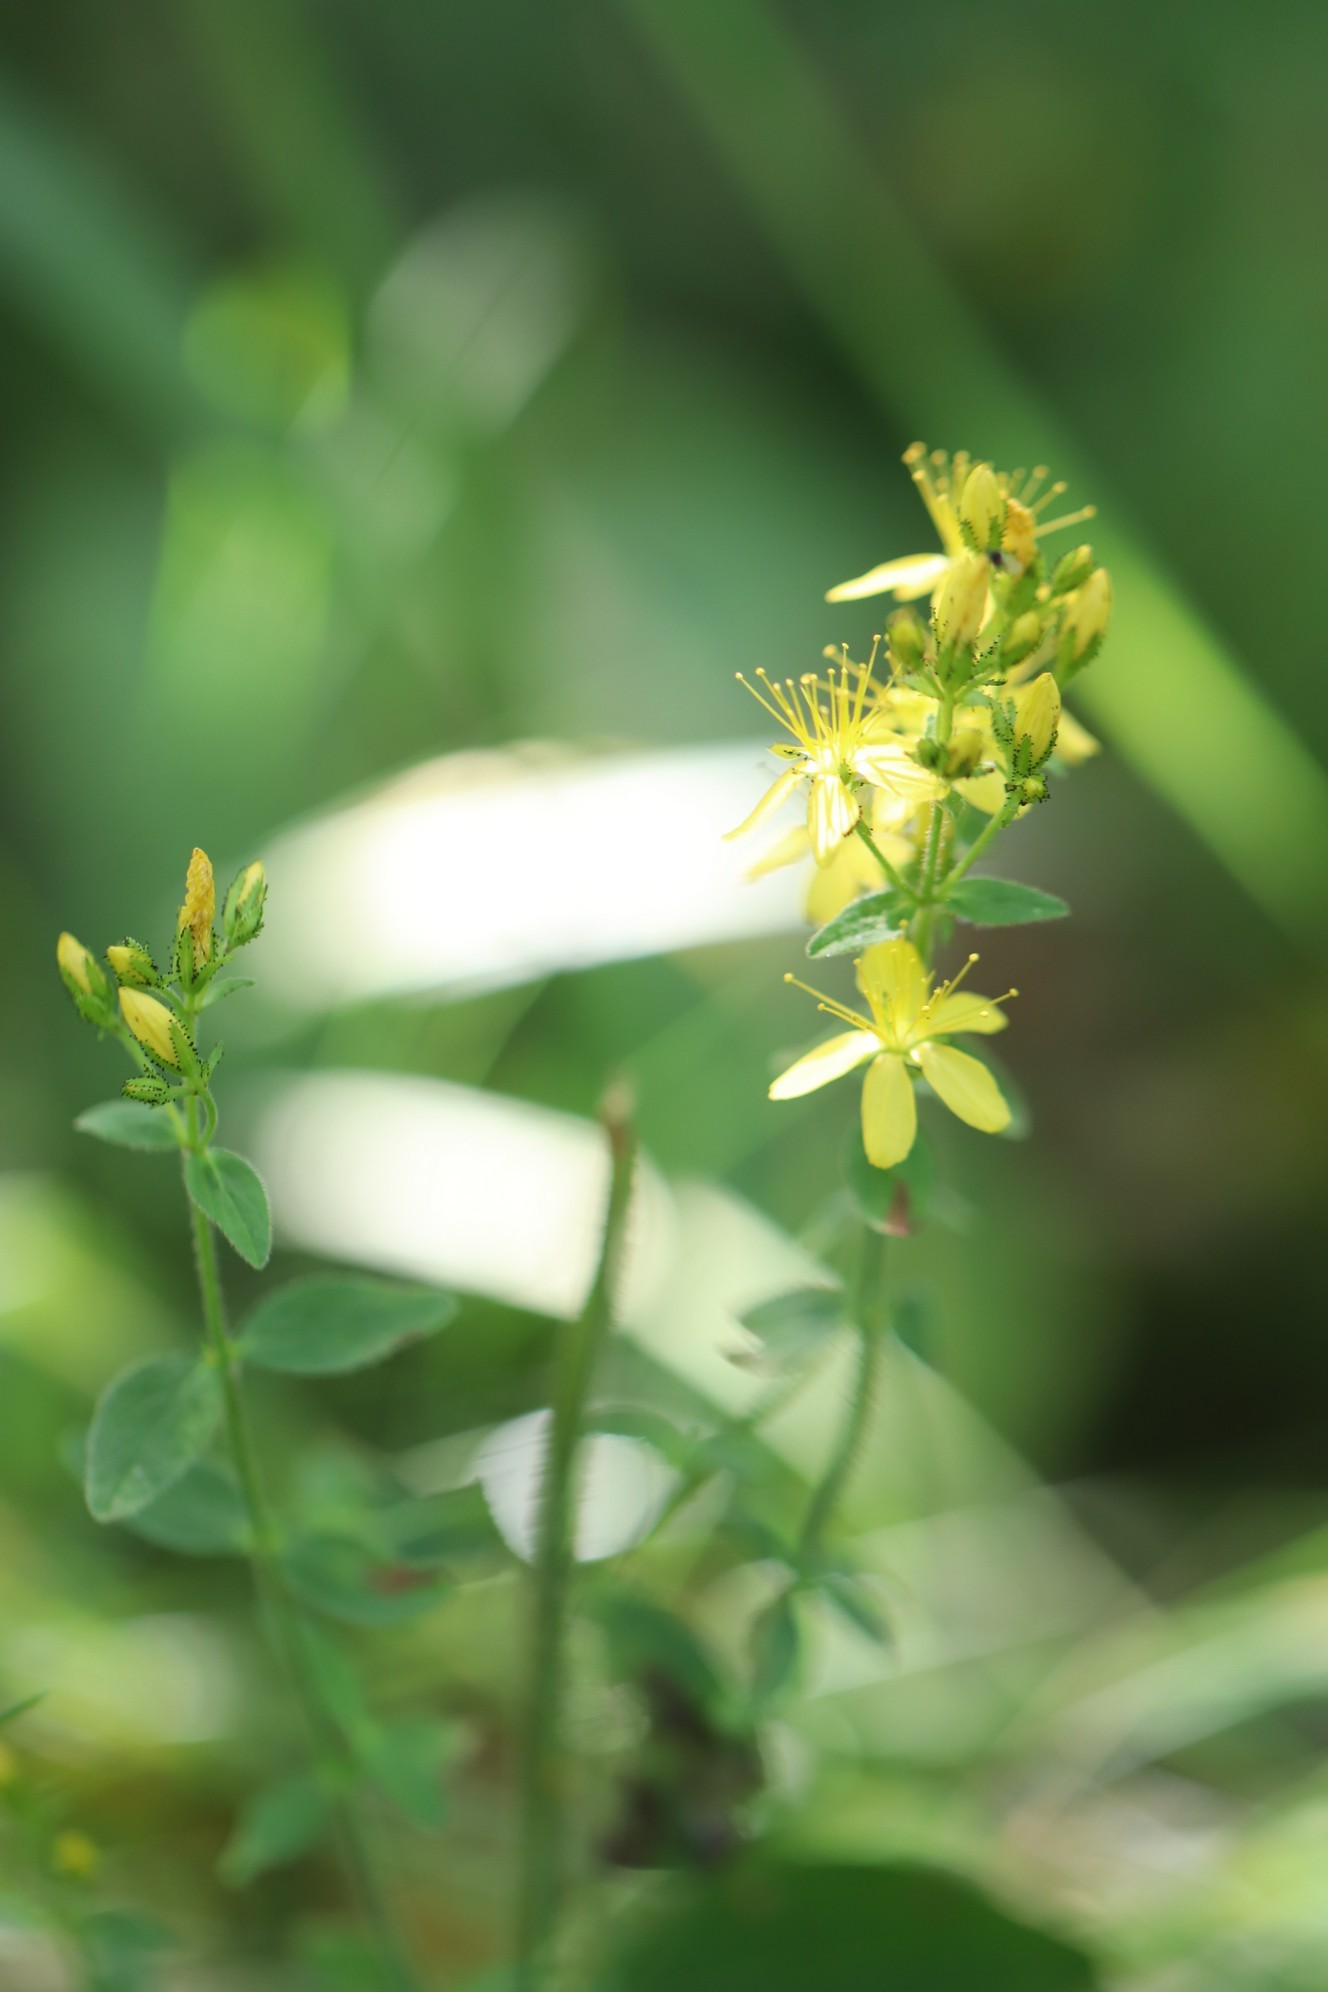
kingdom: Plantae
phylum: Tracheophyta
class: Magnoliopsida
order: Malpighiales
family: Hypericaceae
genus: Hypericum
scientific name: Hypericum hirsutum
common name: Hairy st. john's-wort
